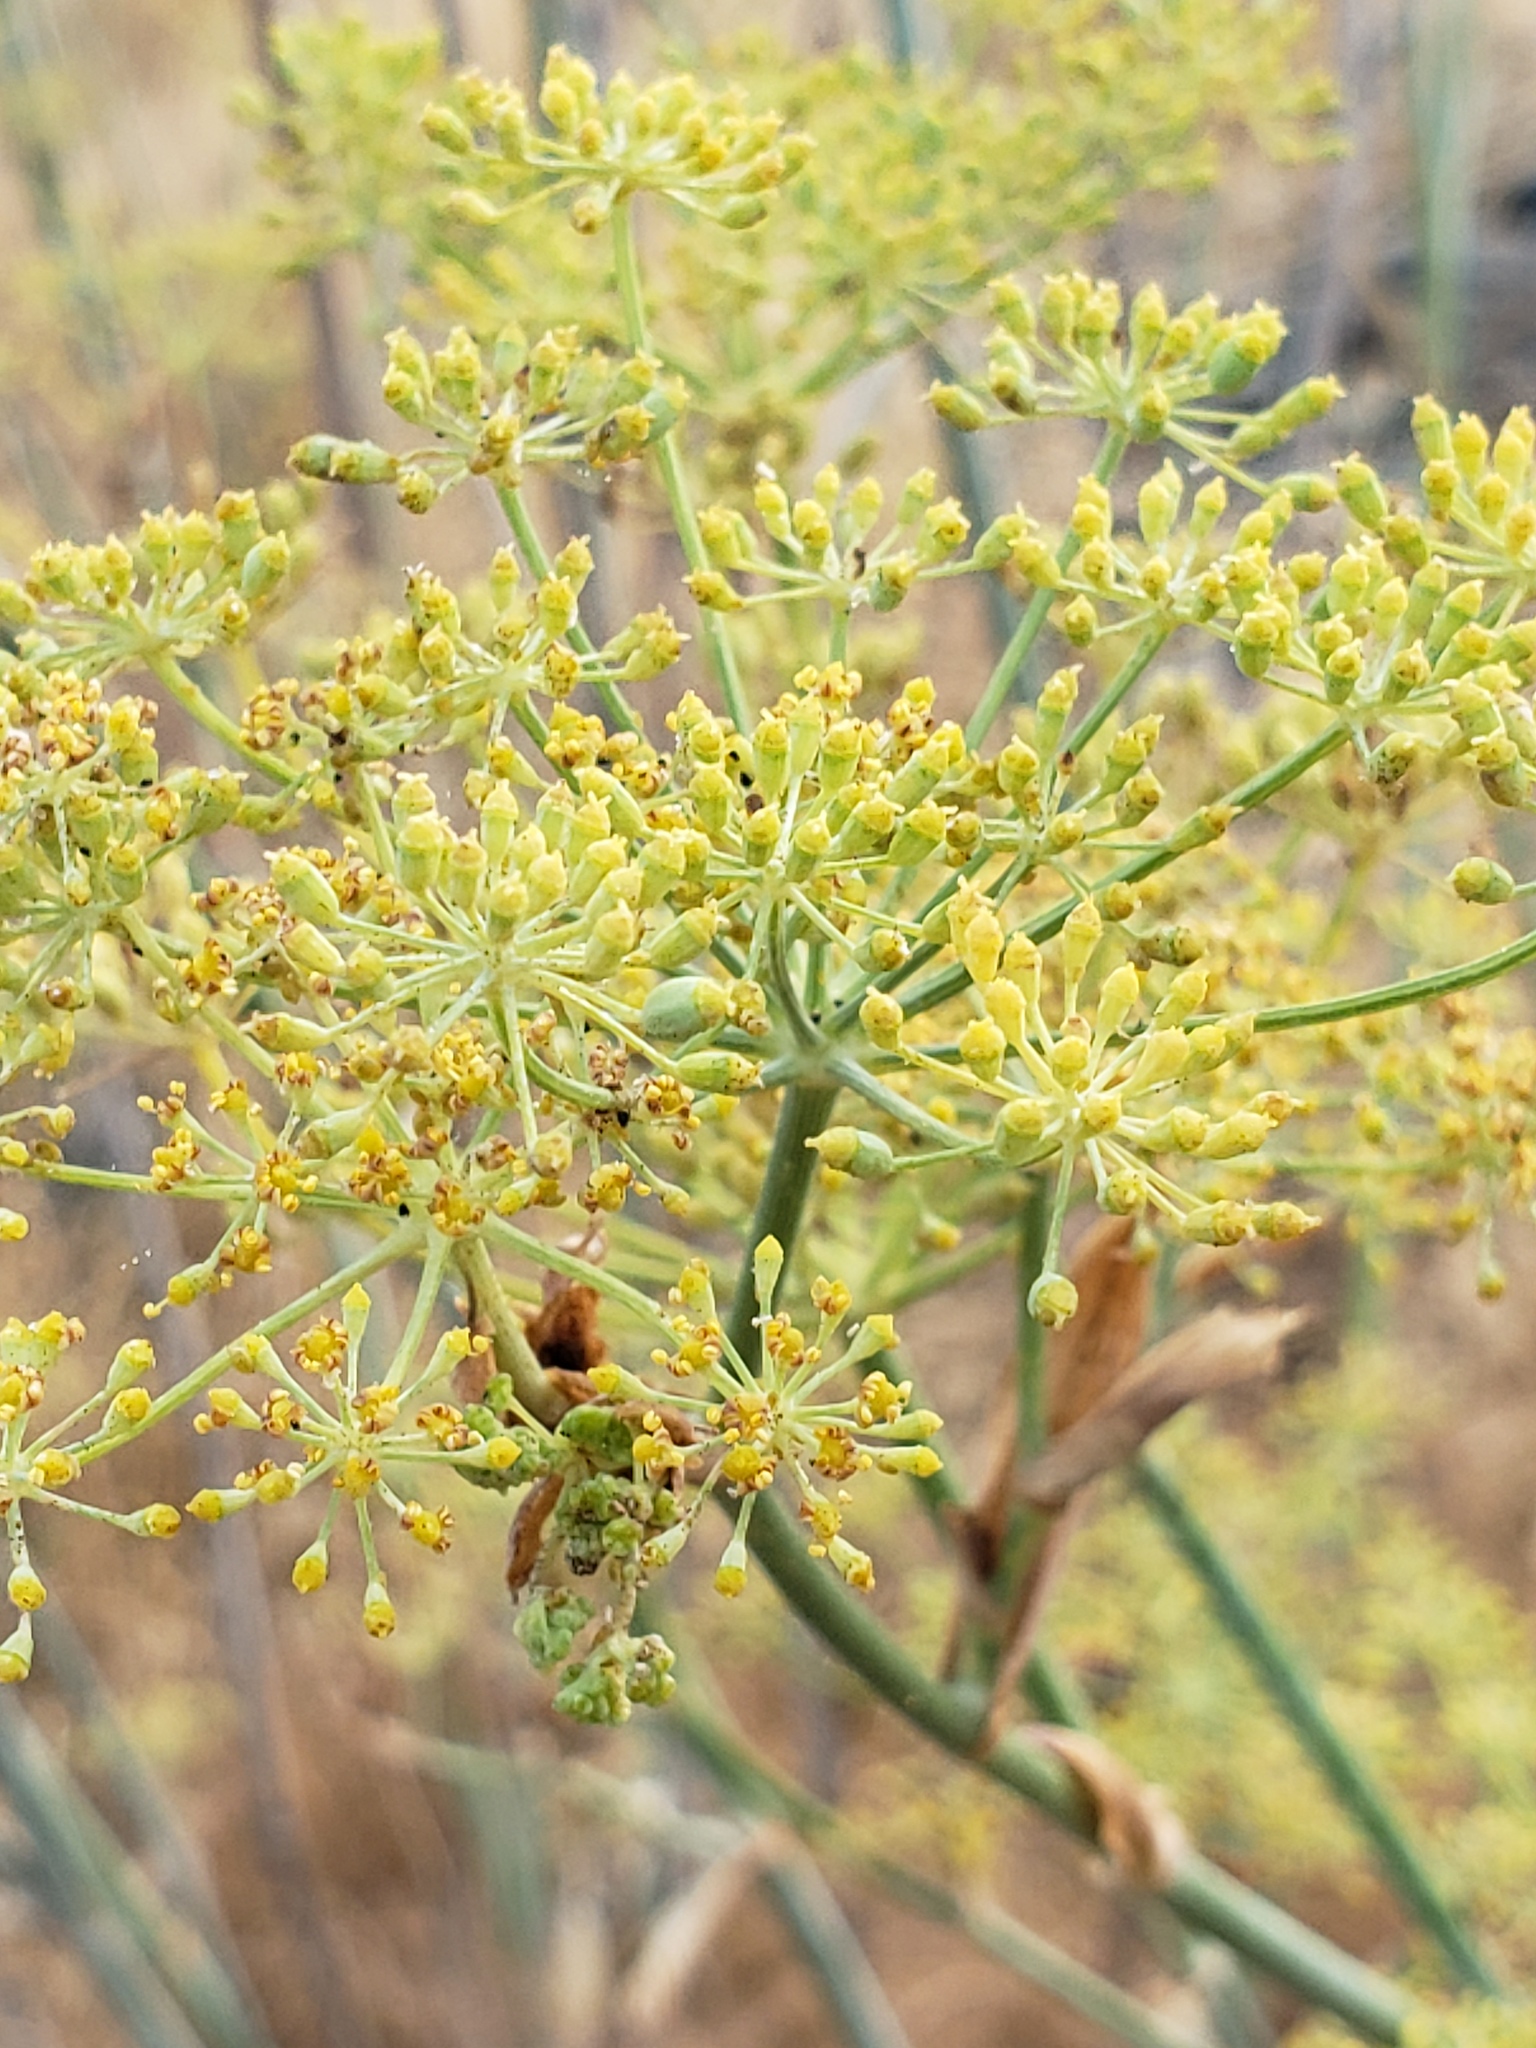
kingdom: Plantae
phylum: Tracheophyta
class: Magnoliopsida
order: Apiales
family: Apiaceae
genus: Foeniculum
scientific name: Foeniculum vulgare
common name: Fennel
